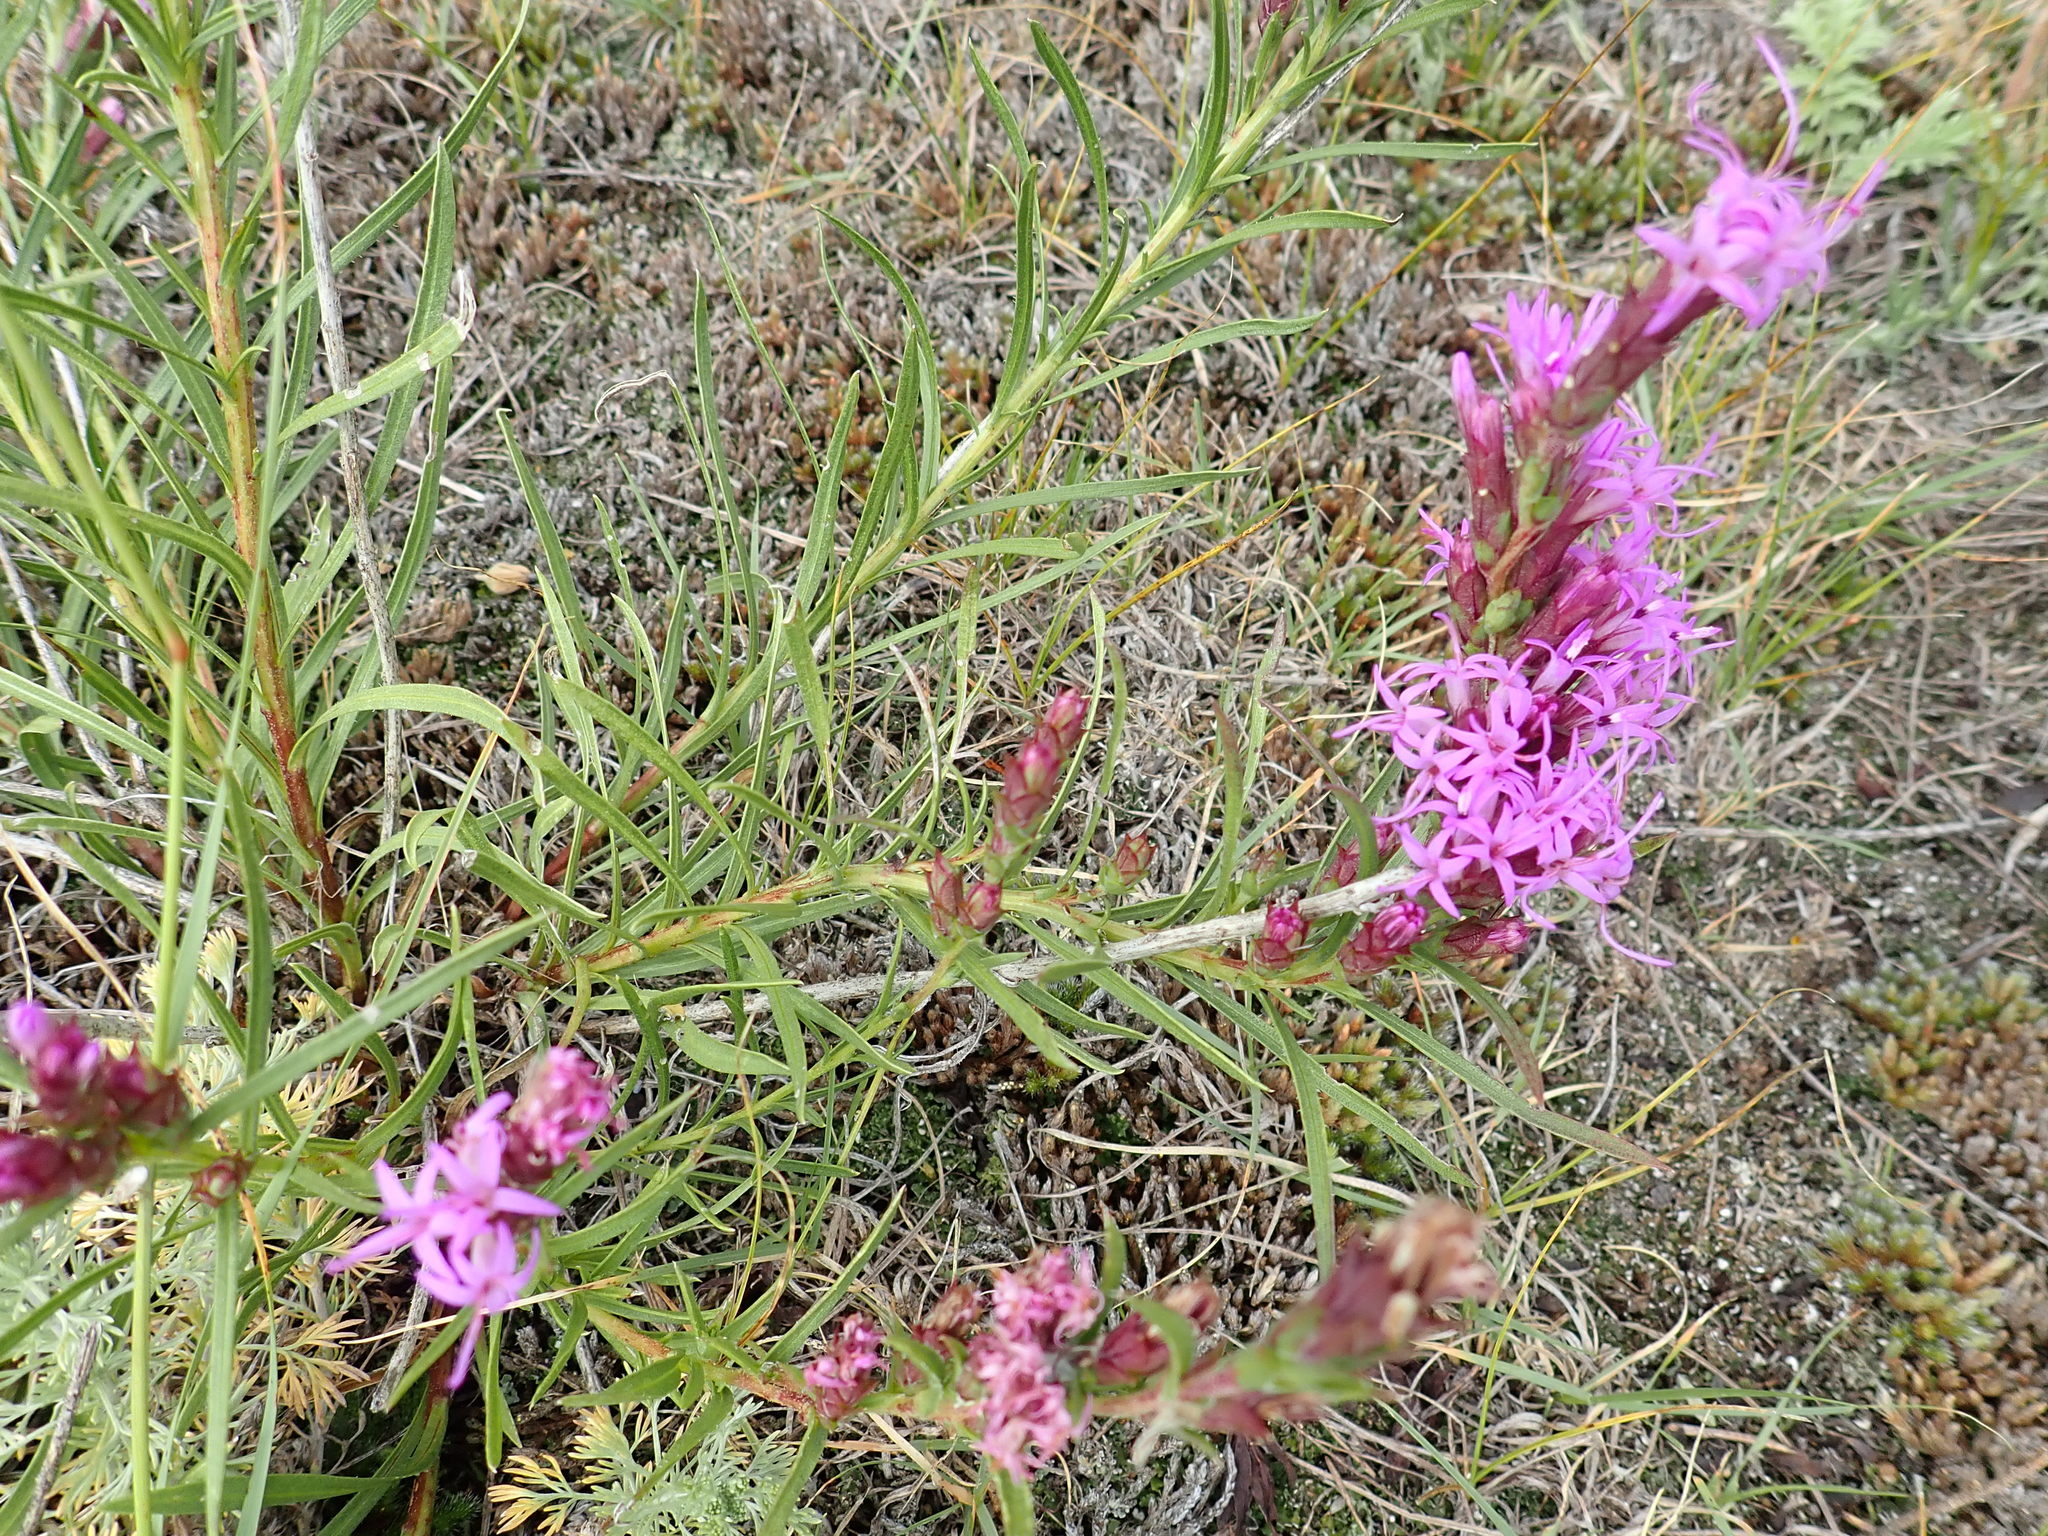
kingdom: Plantae
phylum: Tracheophyta
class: Magnoliopsida
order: Asterales
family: Asteraceae
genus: Liatris
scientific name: Liatris punctata
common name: Dotted gayfeather
